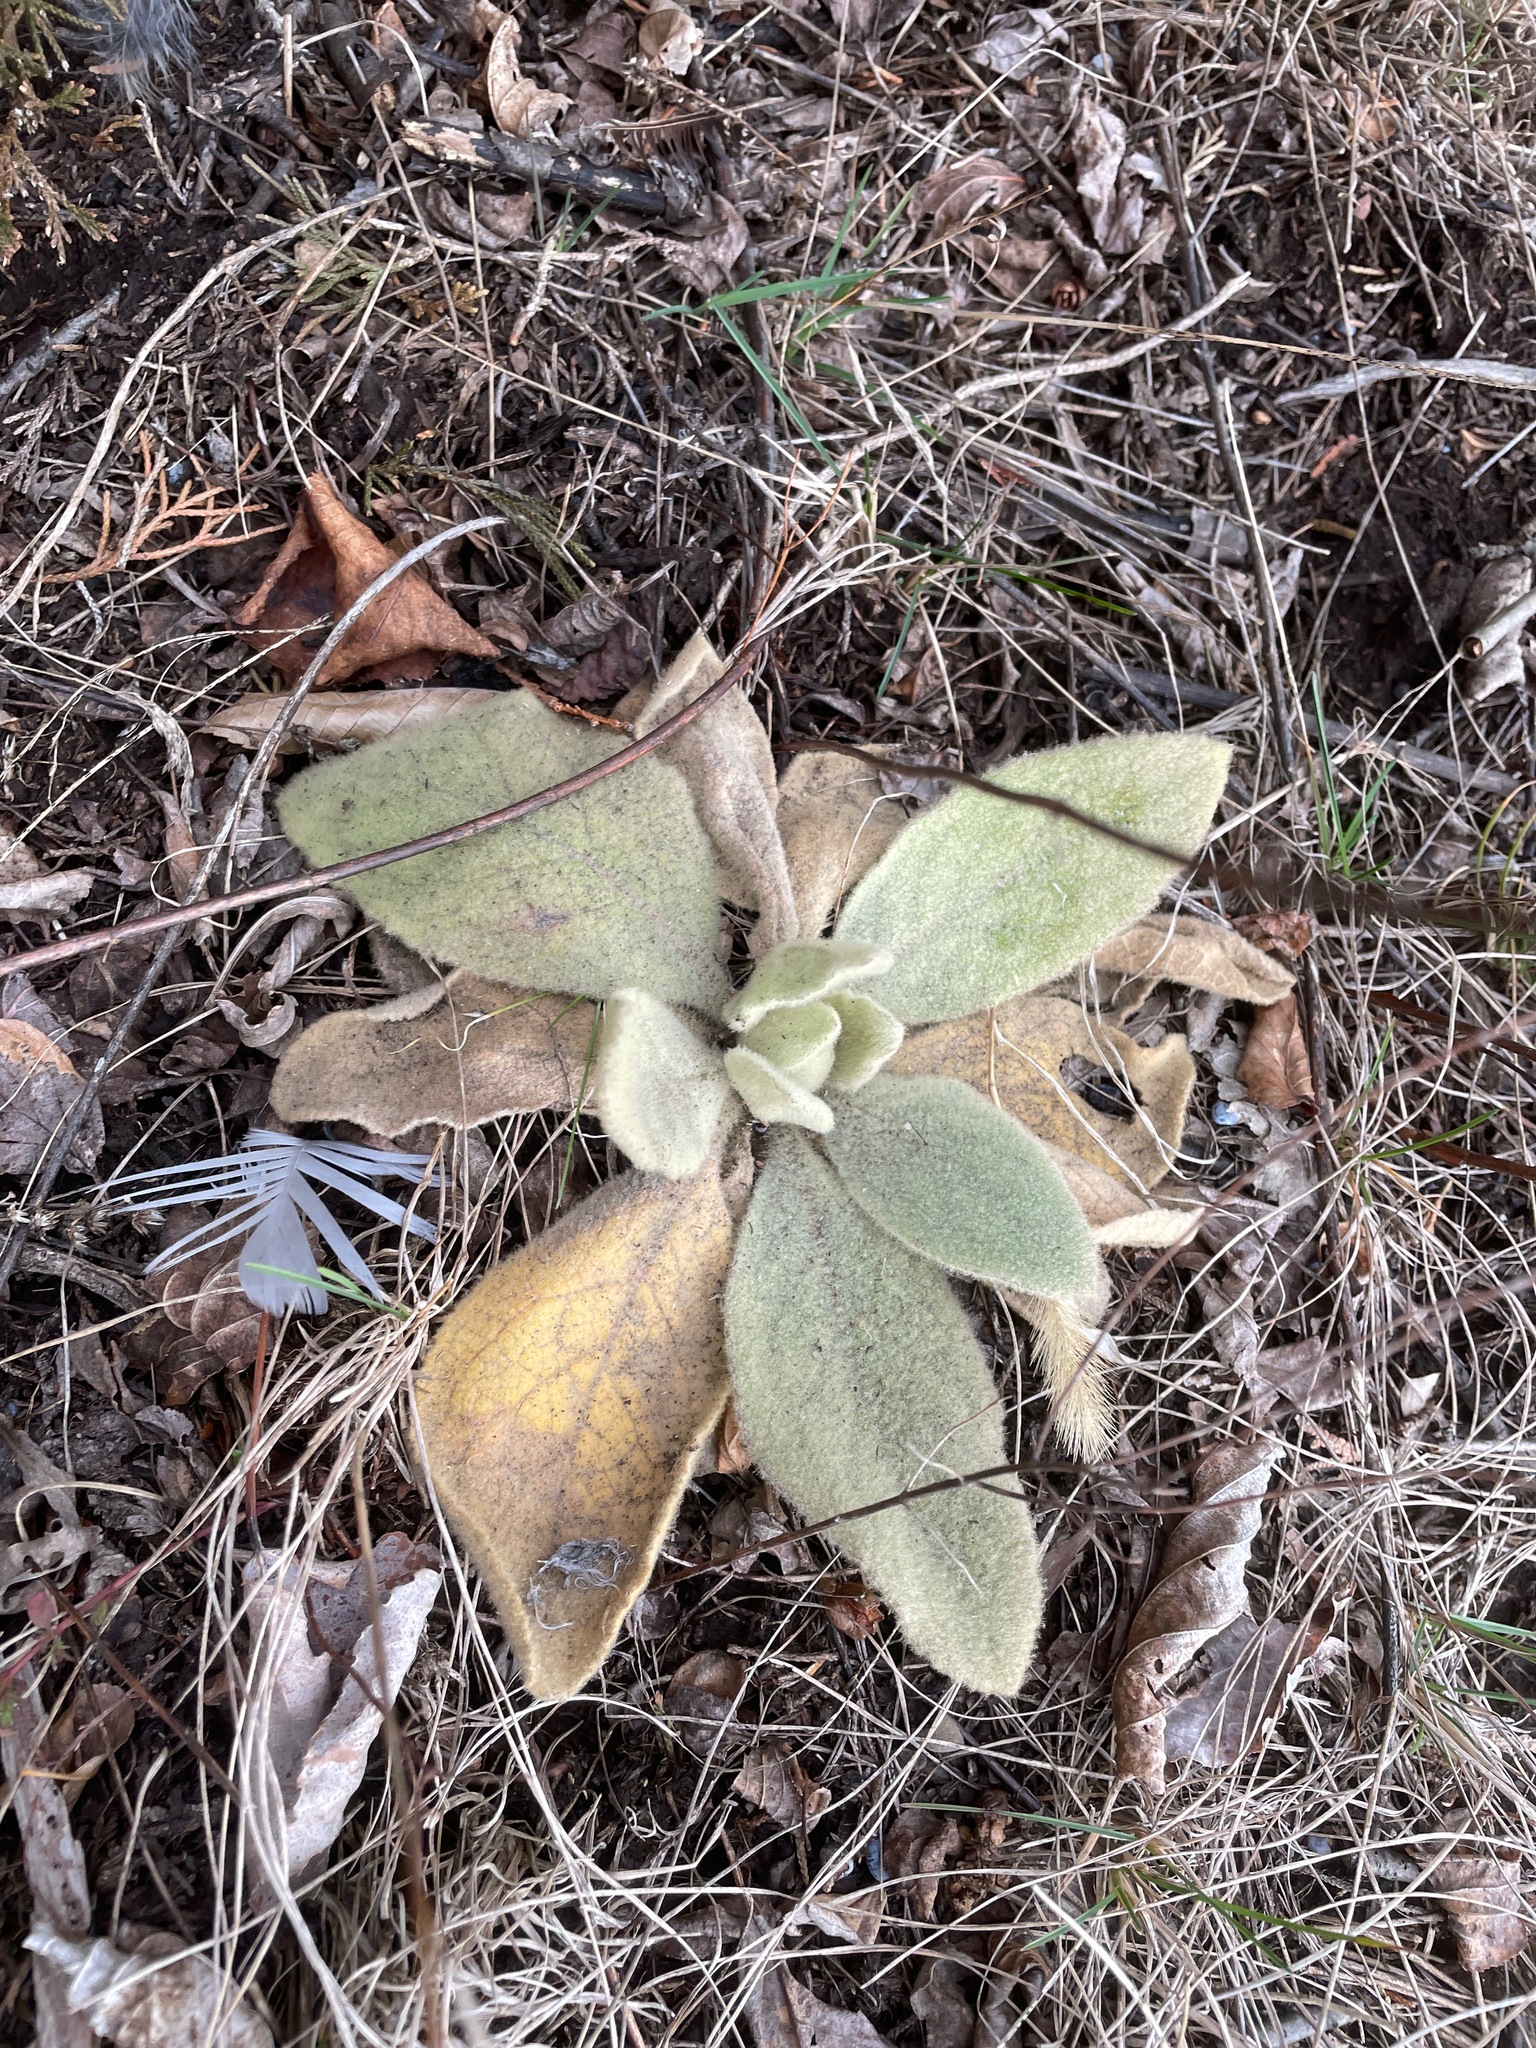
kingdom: Plantae
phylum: Tracheophyta
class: Magnoliopsida
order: Lamiales
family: Scrophulariaceae
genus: Verbascum
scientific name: Verbascum thapsus
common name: Common mullein
